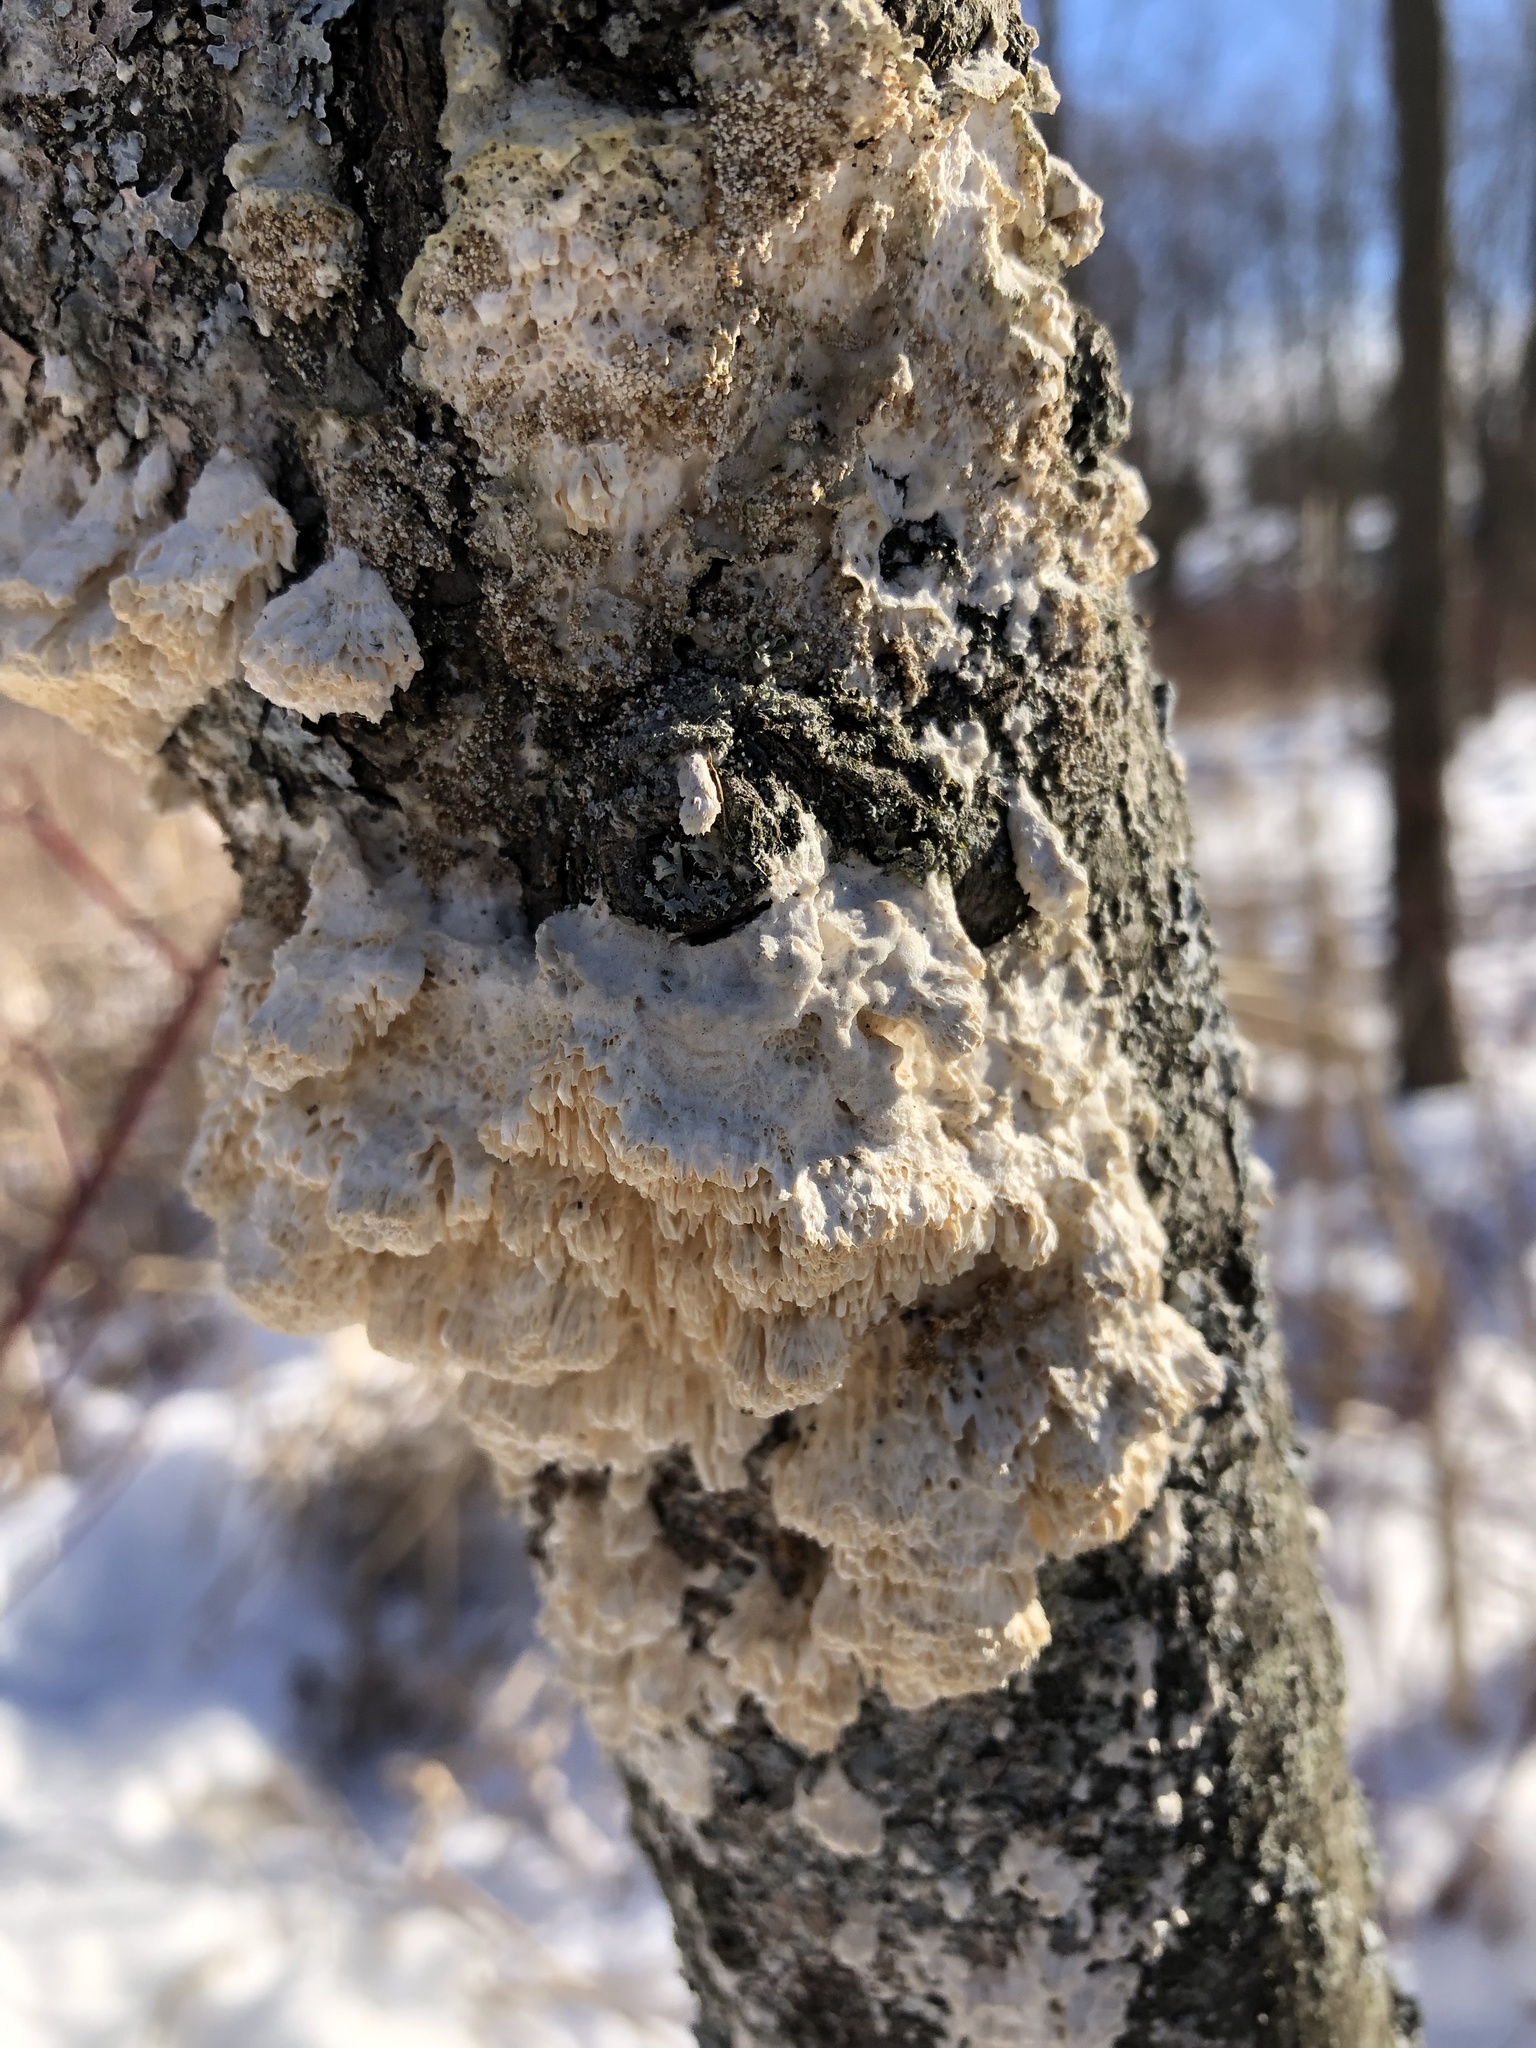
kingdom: Fungi
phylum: Basidiomycota
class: Agaricomycetes
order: Polyporales
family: Irpicaceae
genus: Irpex
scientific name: Irpex lacteus
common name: Milk-white toothed polypore
